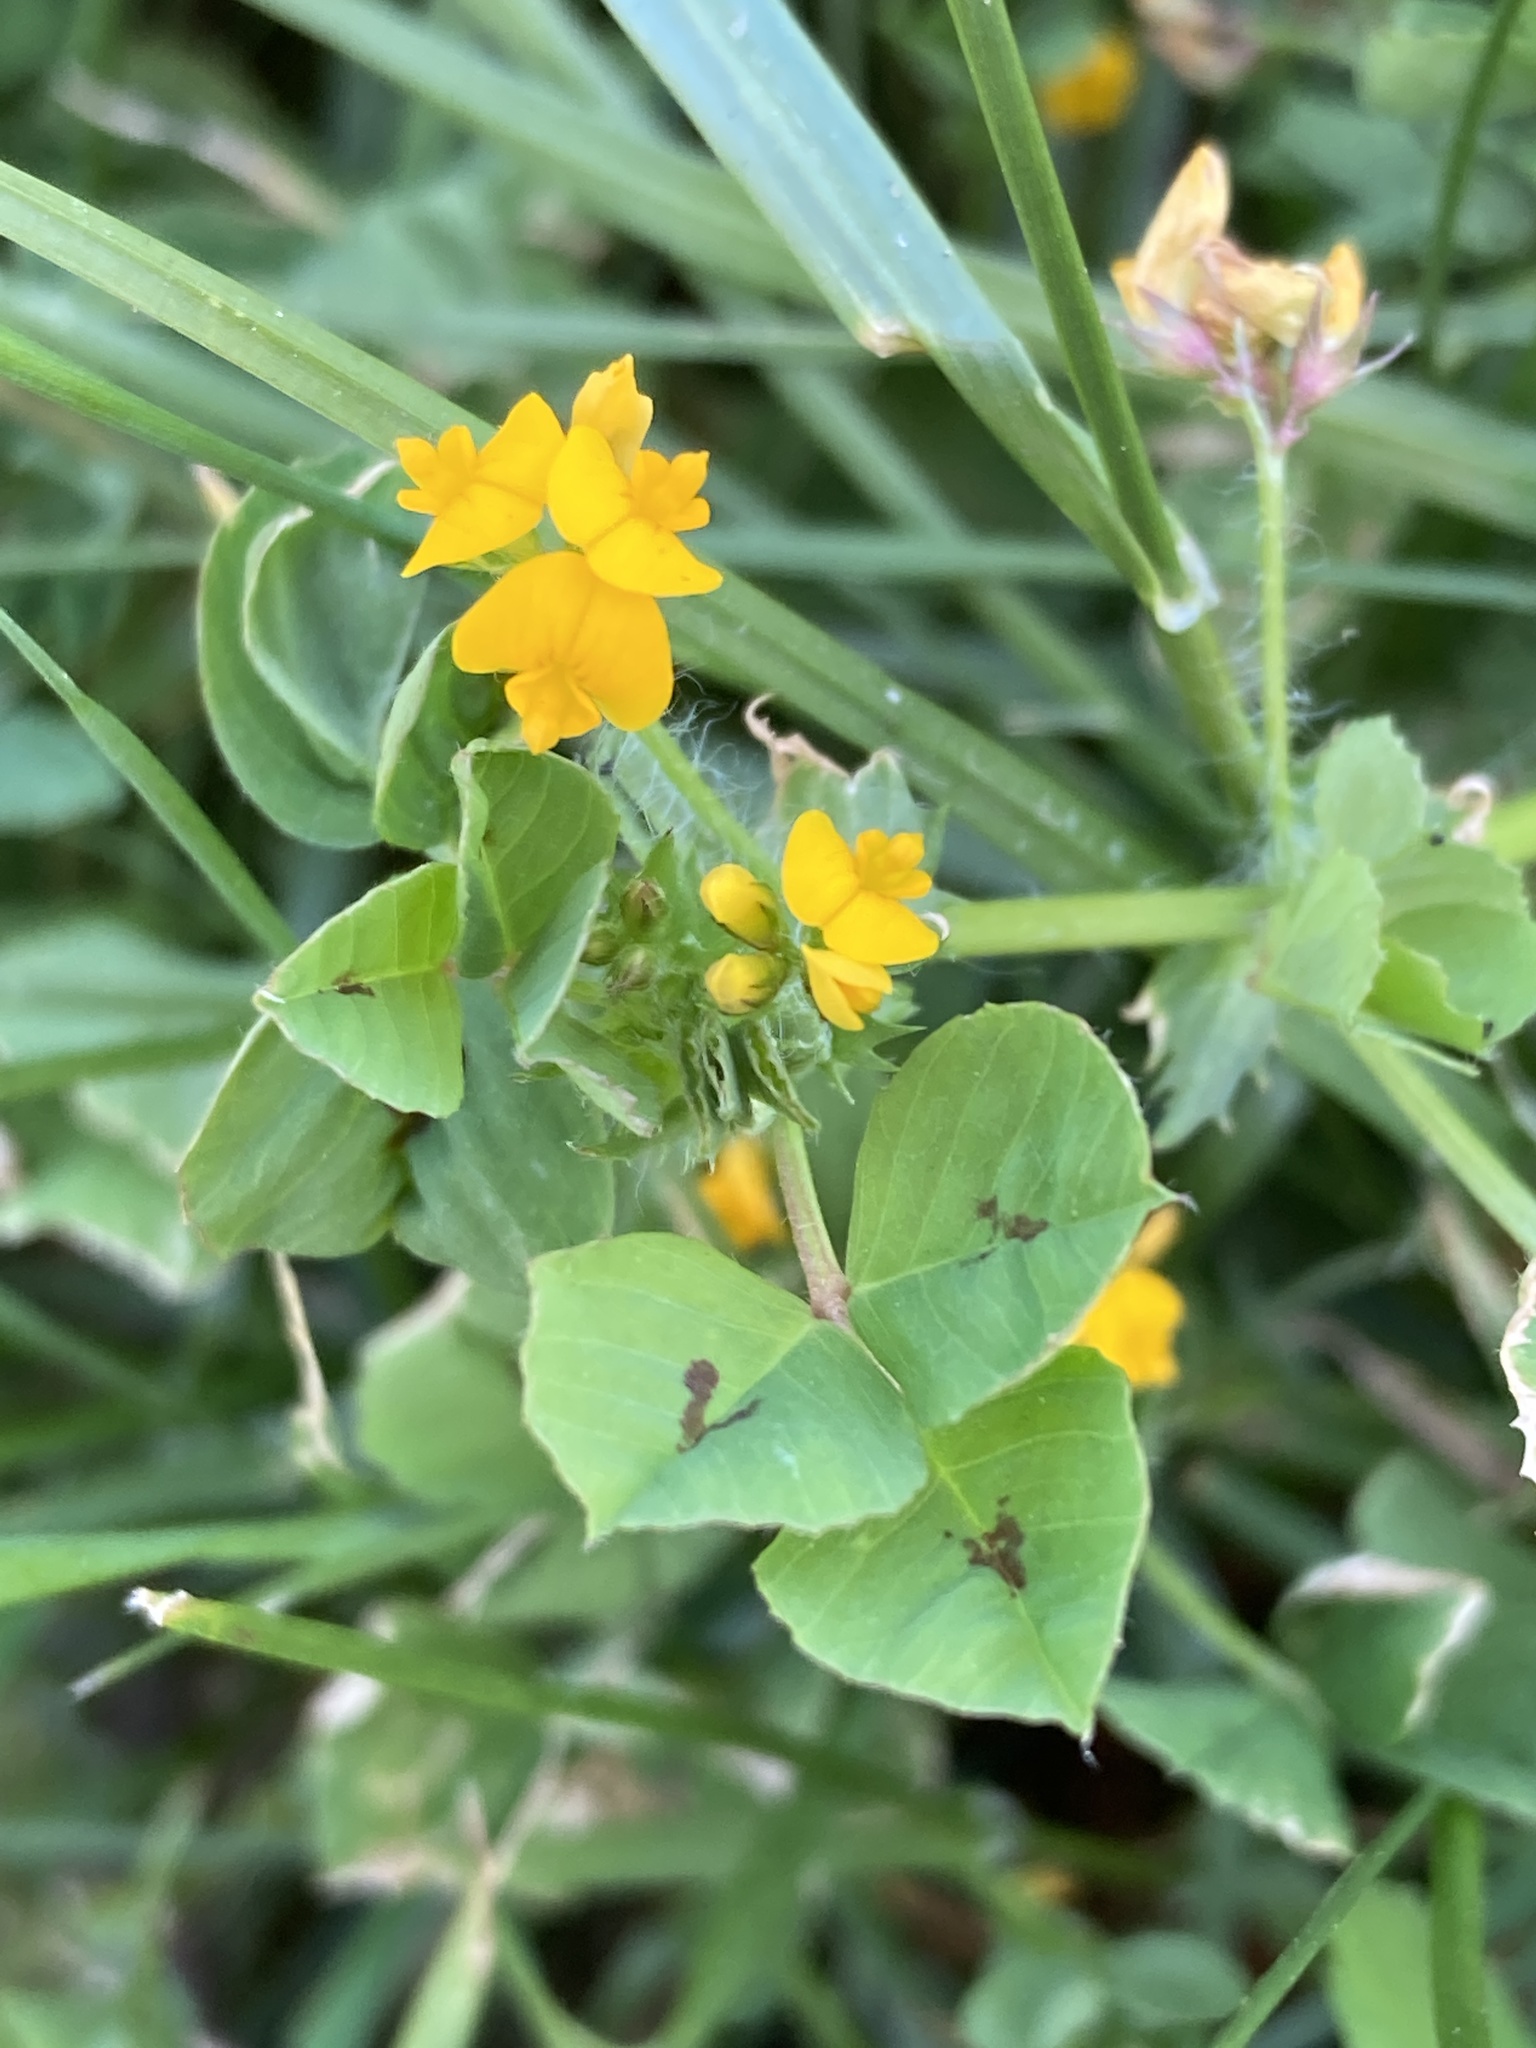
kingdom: Plantae
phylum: Tracheophyta
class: Magnoliopsida
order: Fabales
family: Fabaceae
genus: Medicago
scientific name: Medicago arabica
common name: Spotted medick
